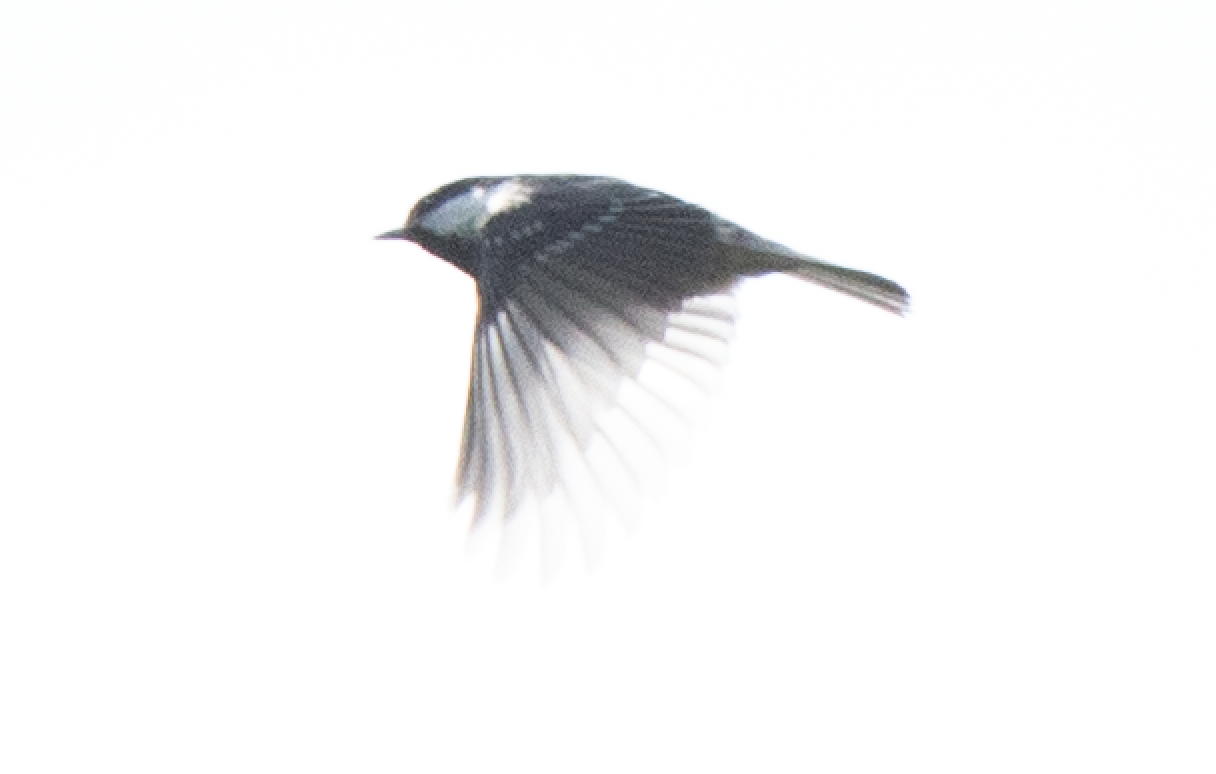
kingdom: Animalia
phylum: Chordata
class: Aves
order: Passeriformes
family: Paridae
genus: Periparus
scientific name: Periparus ater
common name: Coal tit
